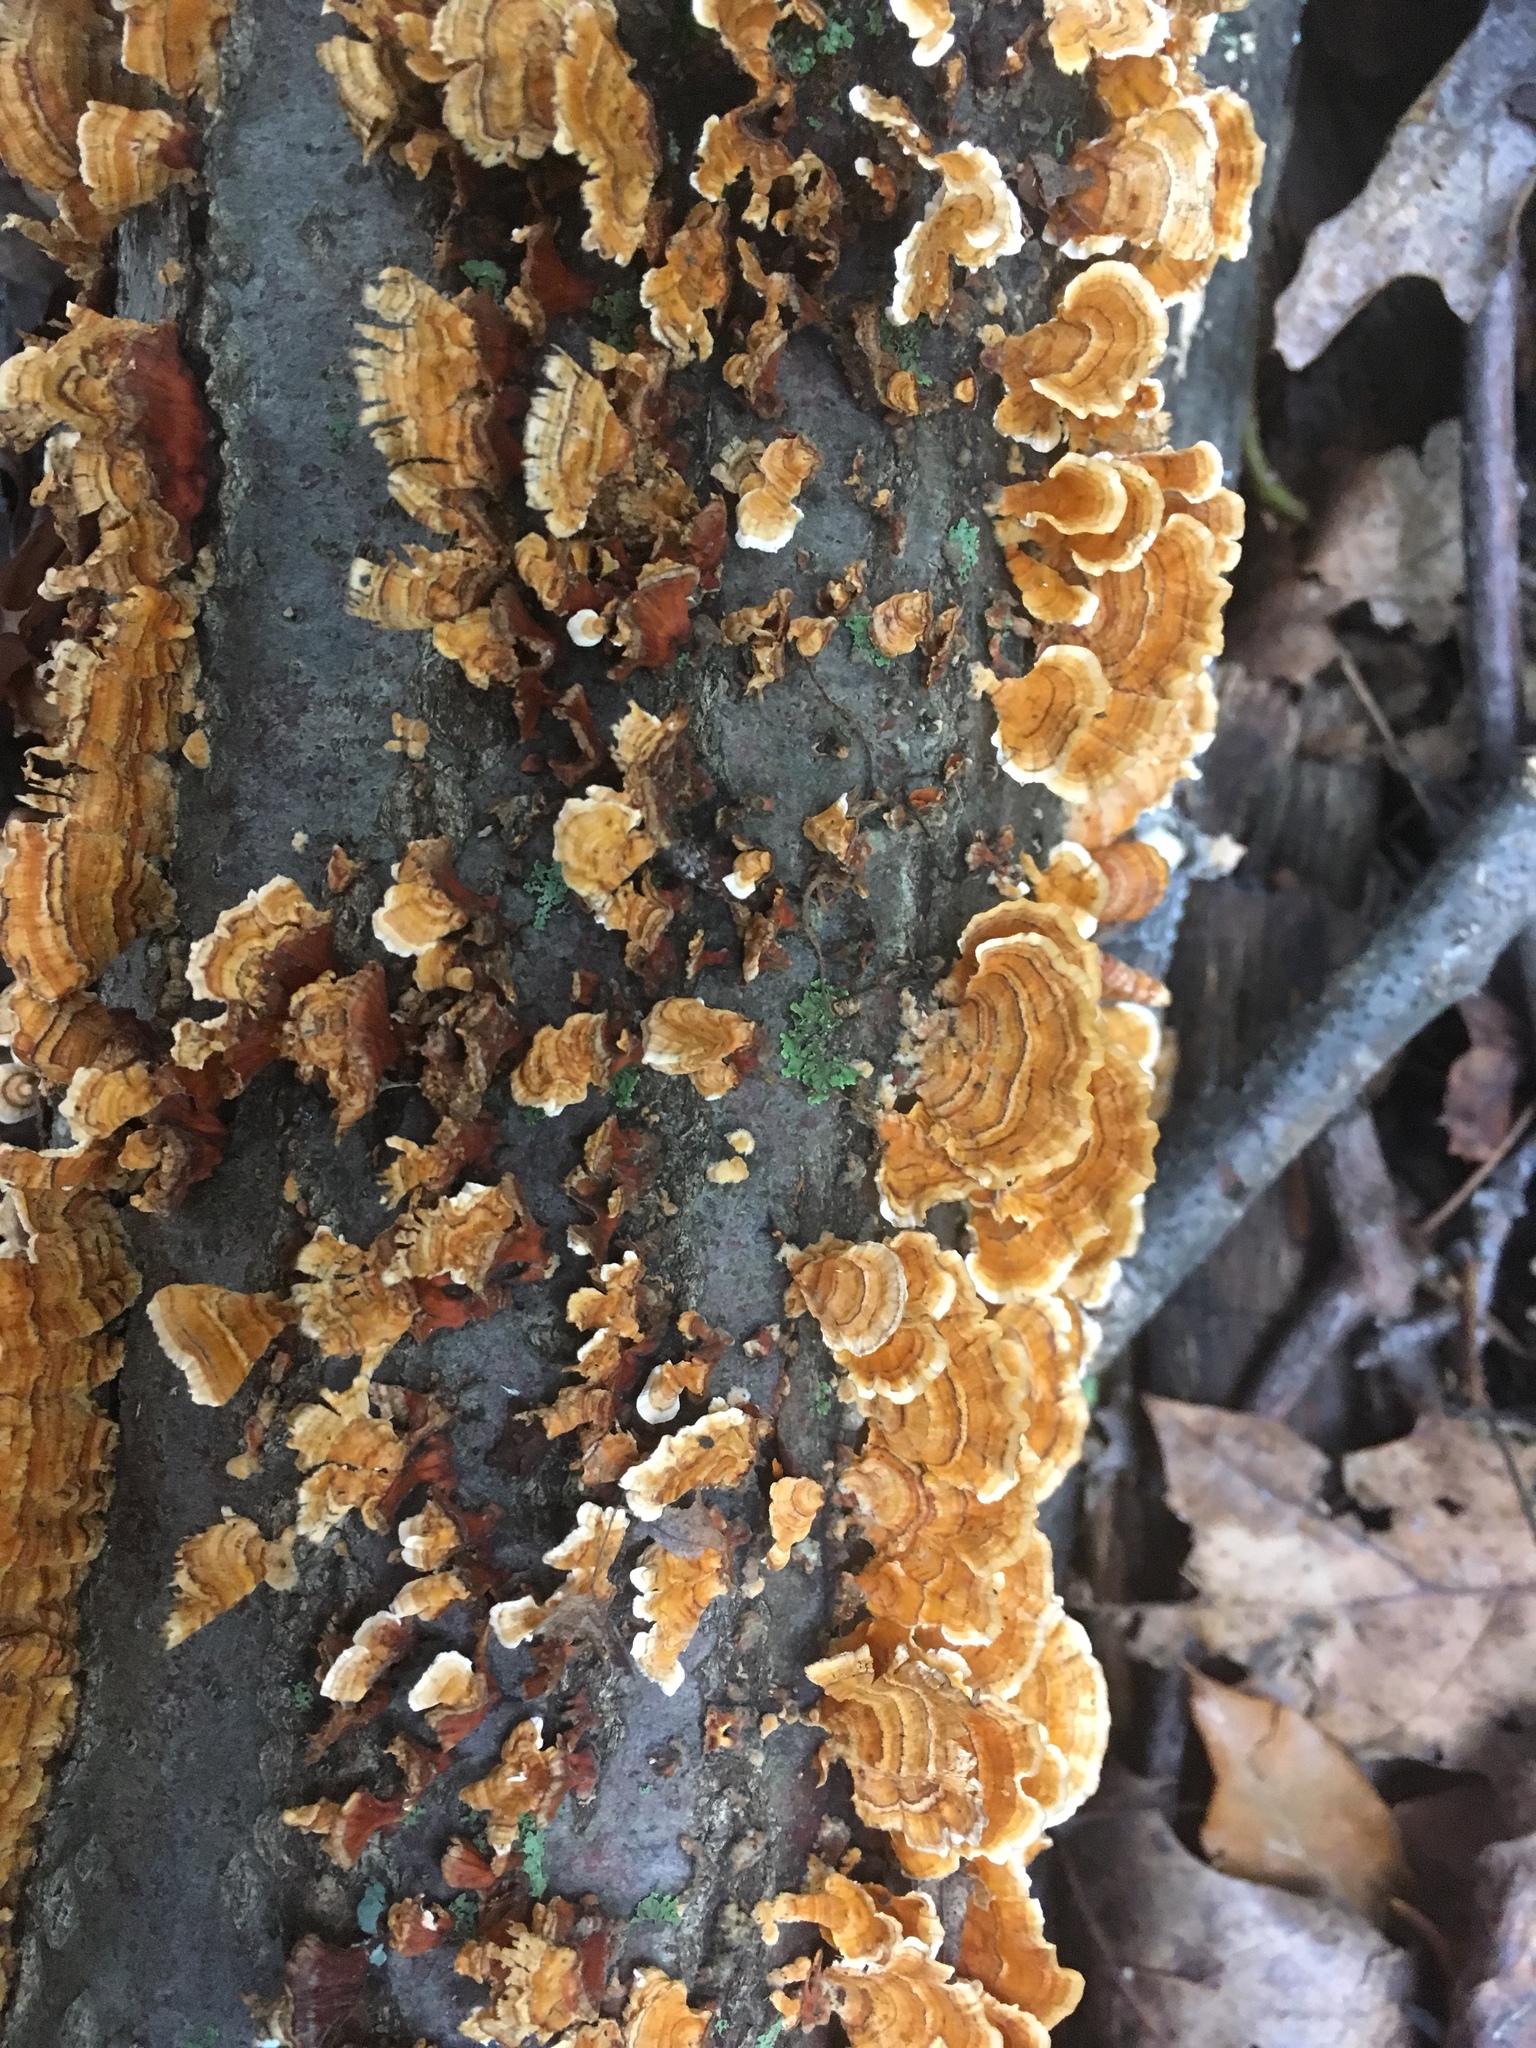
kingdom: Fungi
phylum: Basidiomycota
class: Agaricomycetes
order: Russulales
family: Stereaceae
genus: Stereum
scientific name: Stereum complicatum
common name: Crowded parchment
